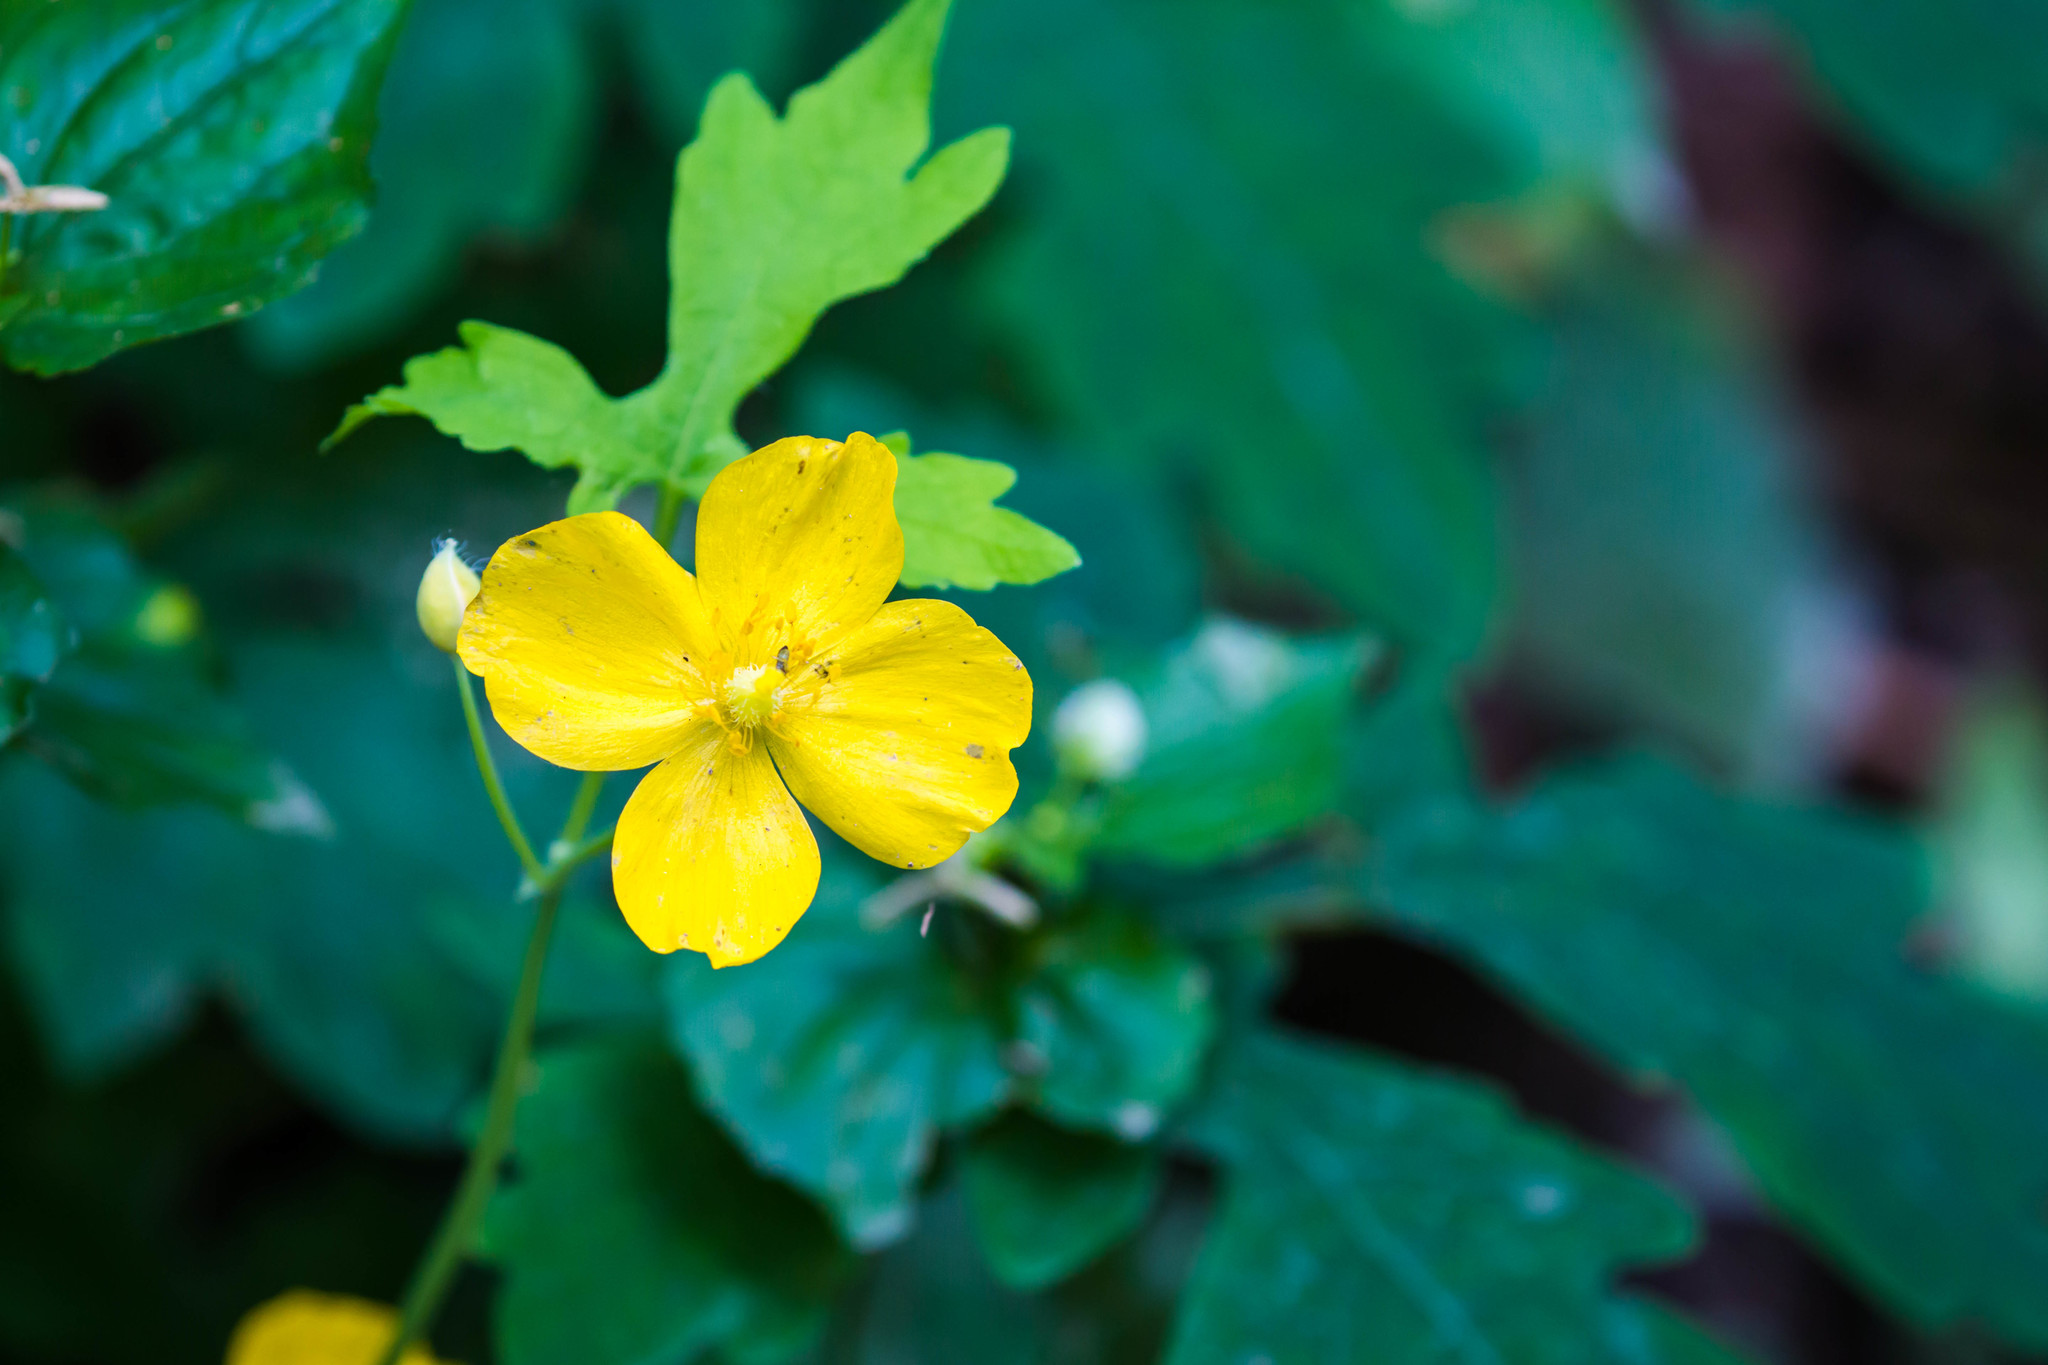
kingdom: Plantae
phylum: Tracheophyta
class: Magnoliopsida
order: Ranunculales
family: Papaveraceae
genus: Stylophorum
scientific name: Stylophorum diphyllum
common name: Celandine poppy
